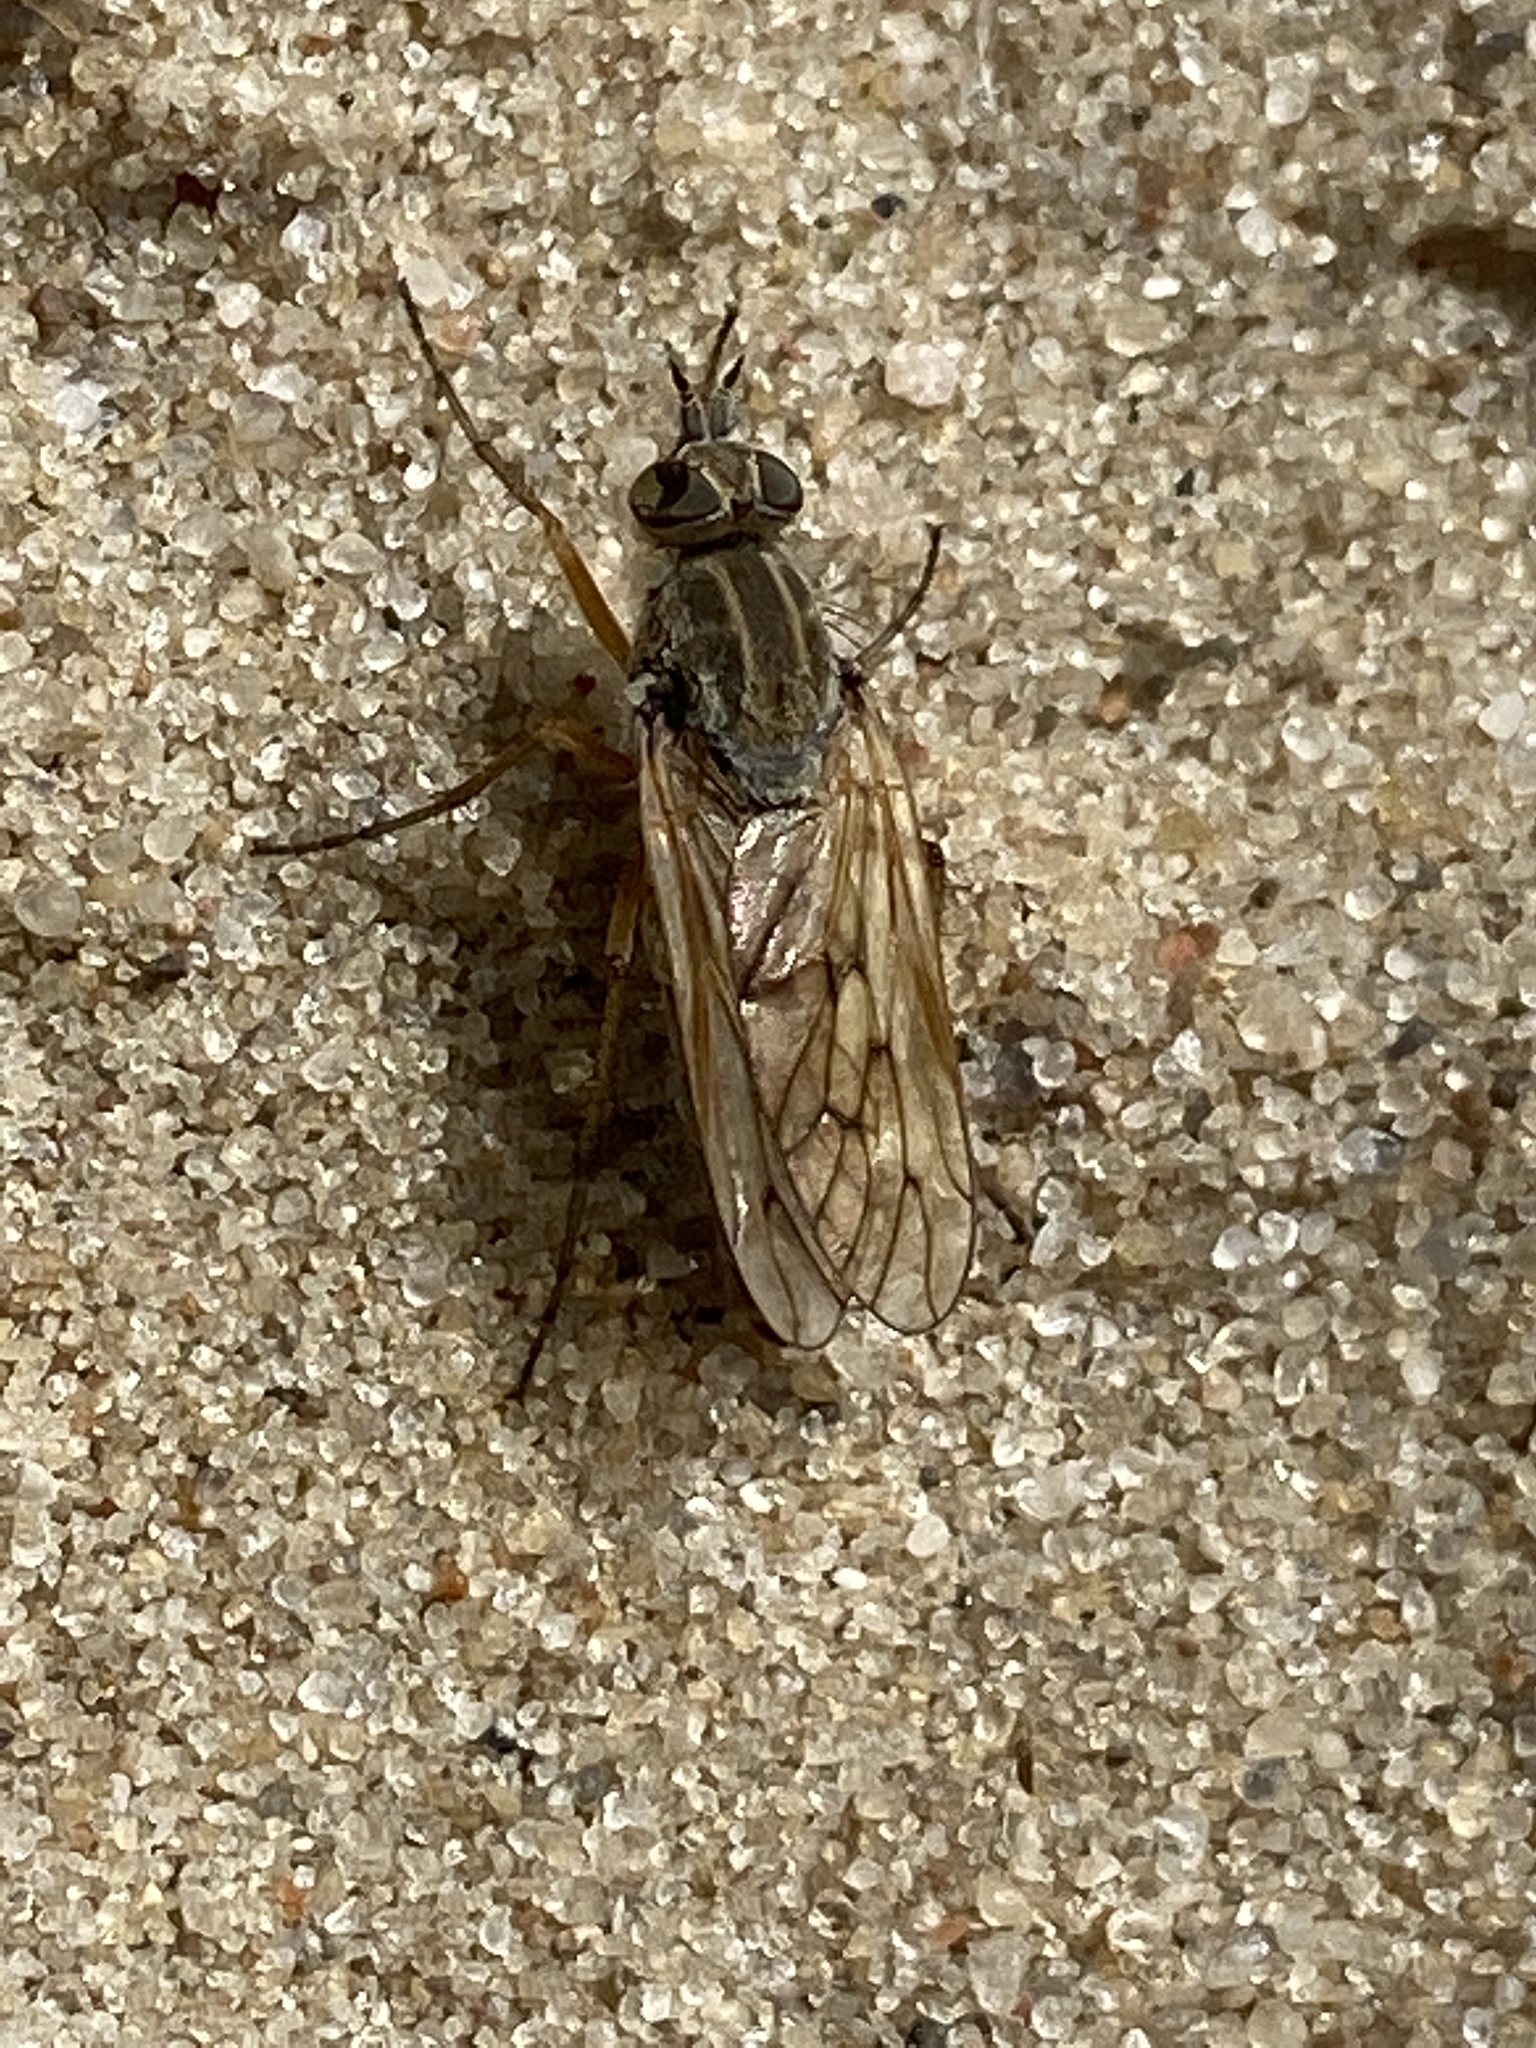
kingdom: Animalia
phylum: Arthropoda
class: Insecta
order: Diptera
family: Therevidae
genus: Dialineura
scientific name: Dialineura anilis
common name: Swollen silver-stiletto
